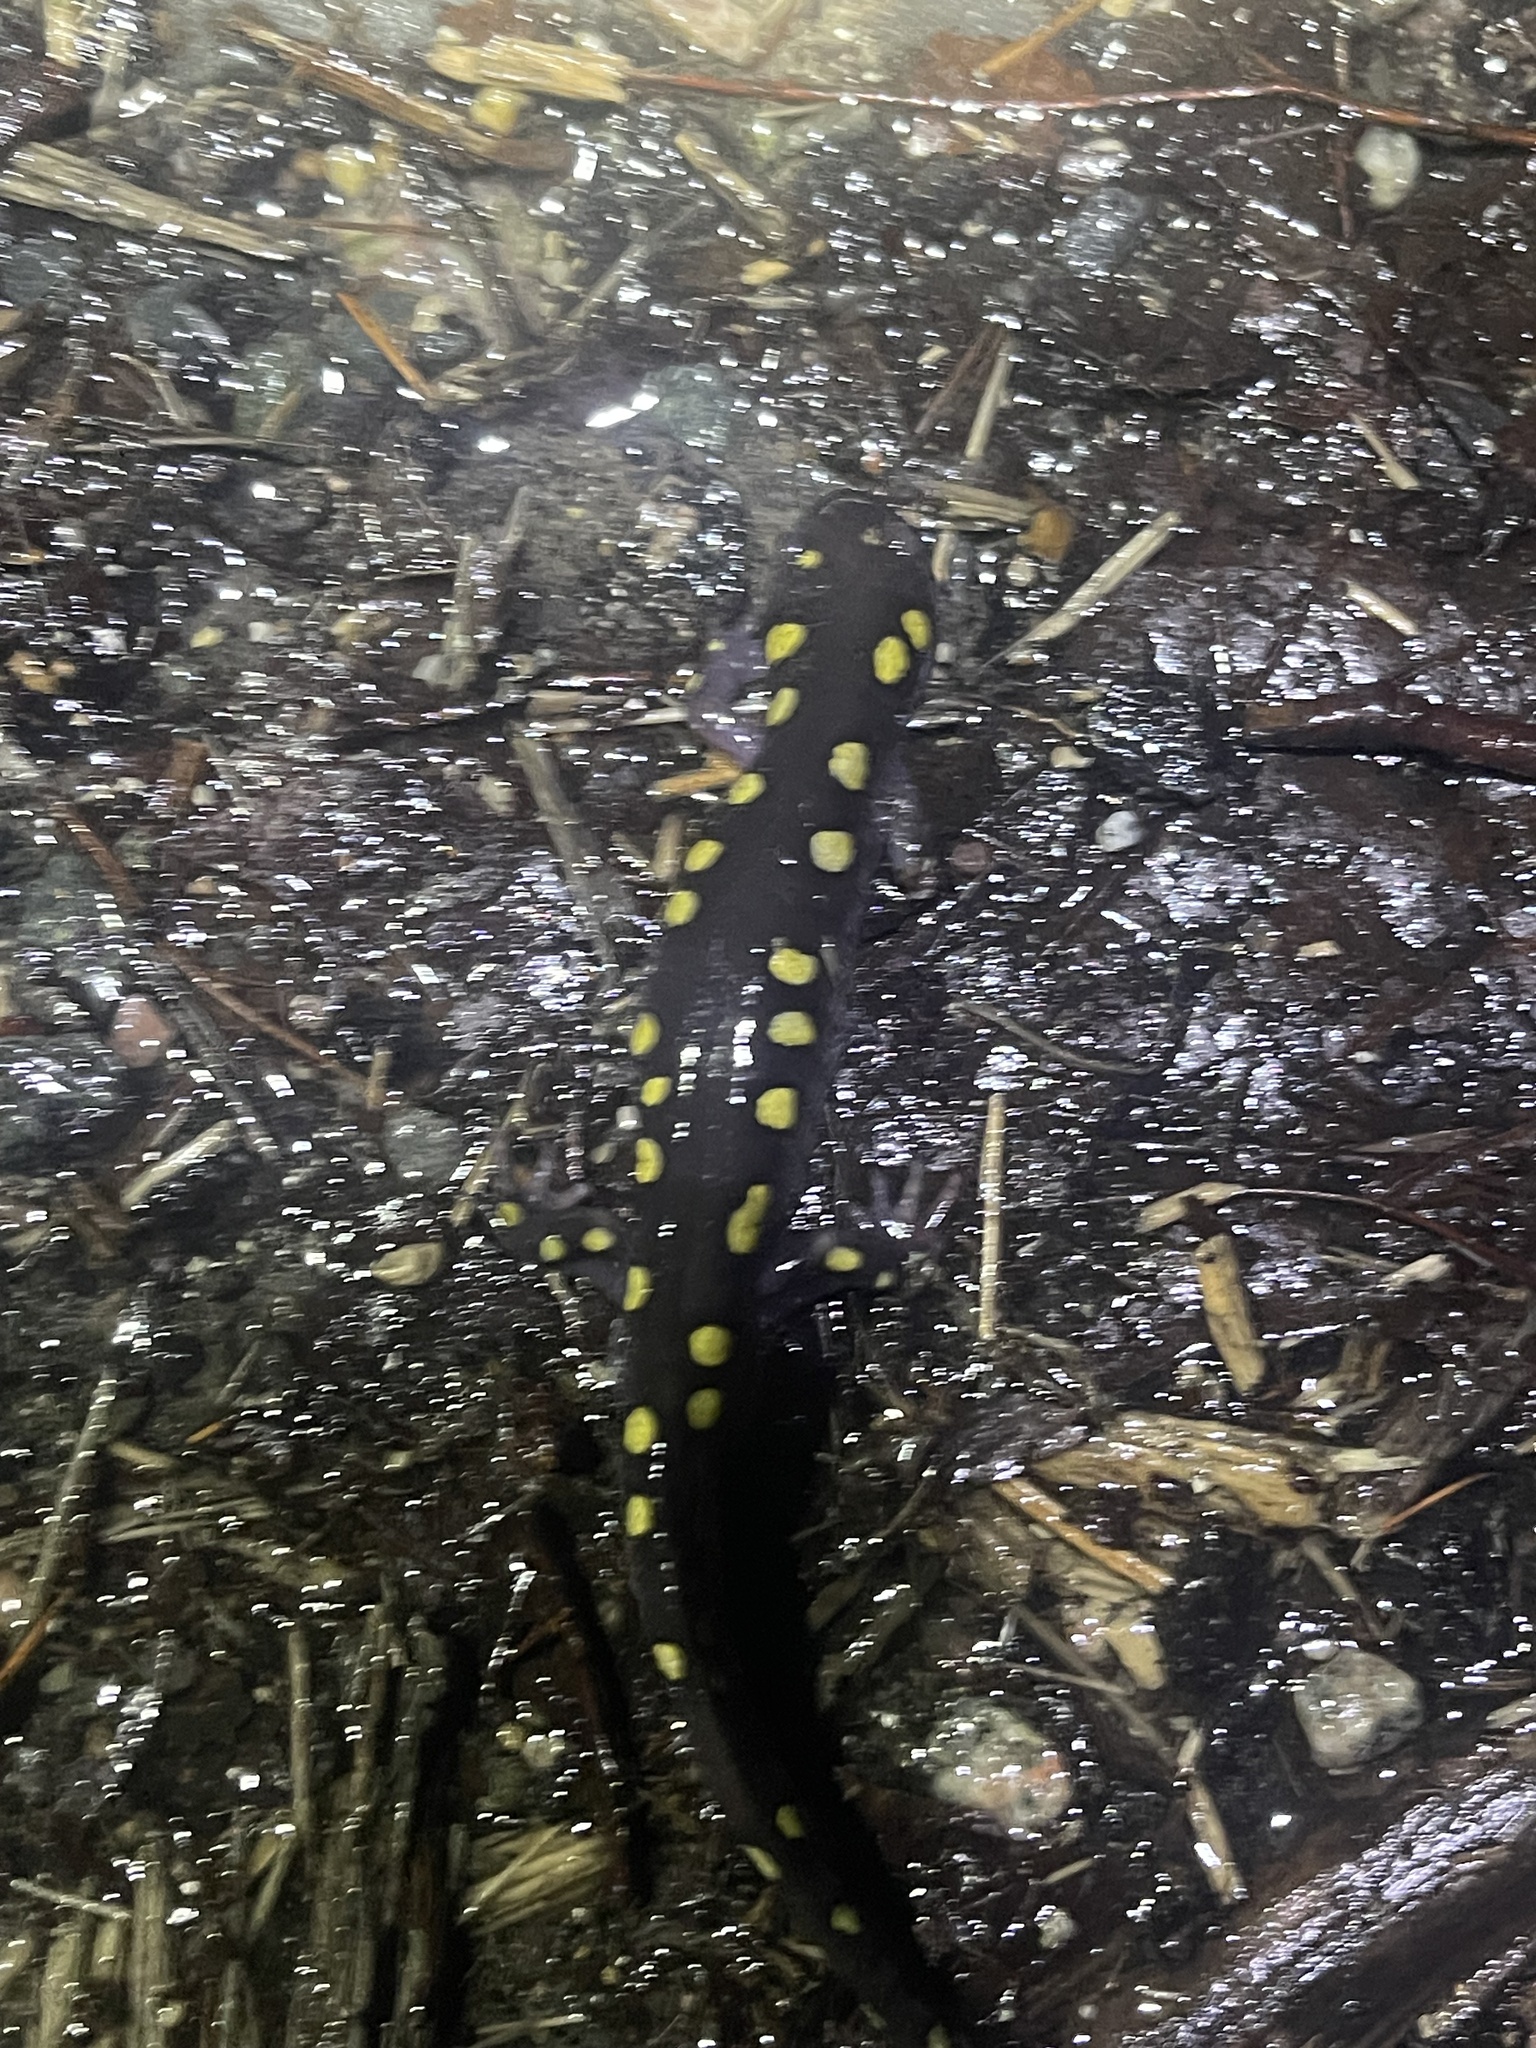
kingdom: Animalia
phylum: Chordata
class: Amphibia
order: Caudata
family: Ambystomatidae
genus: Ambystoma
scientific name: Ambystoma maculatum
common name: Spotted salamander
